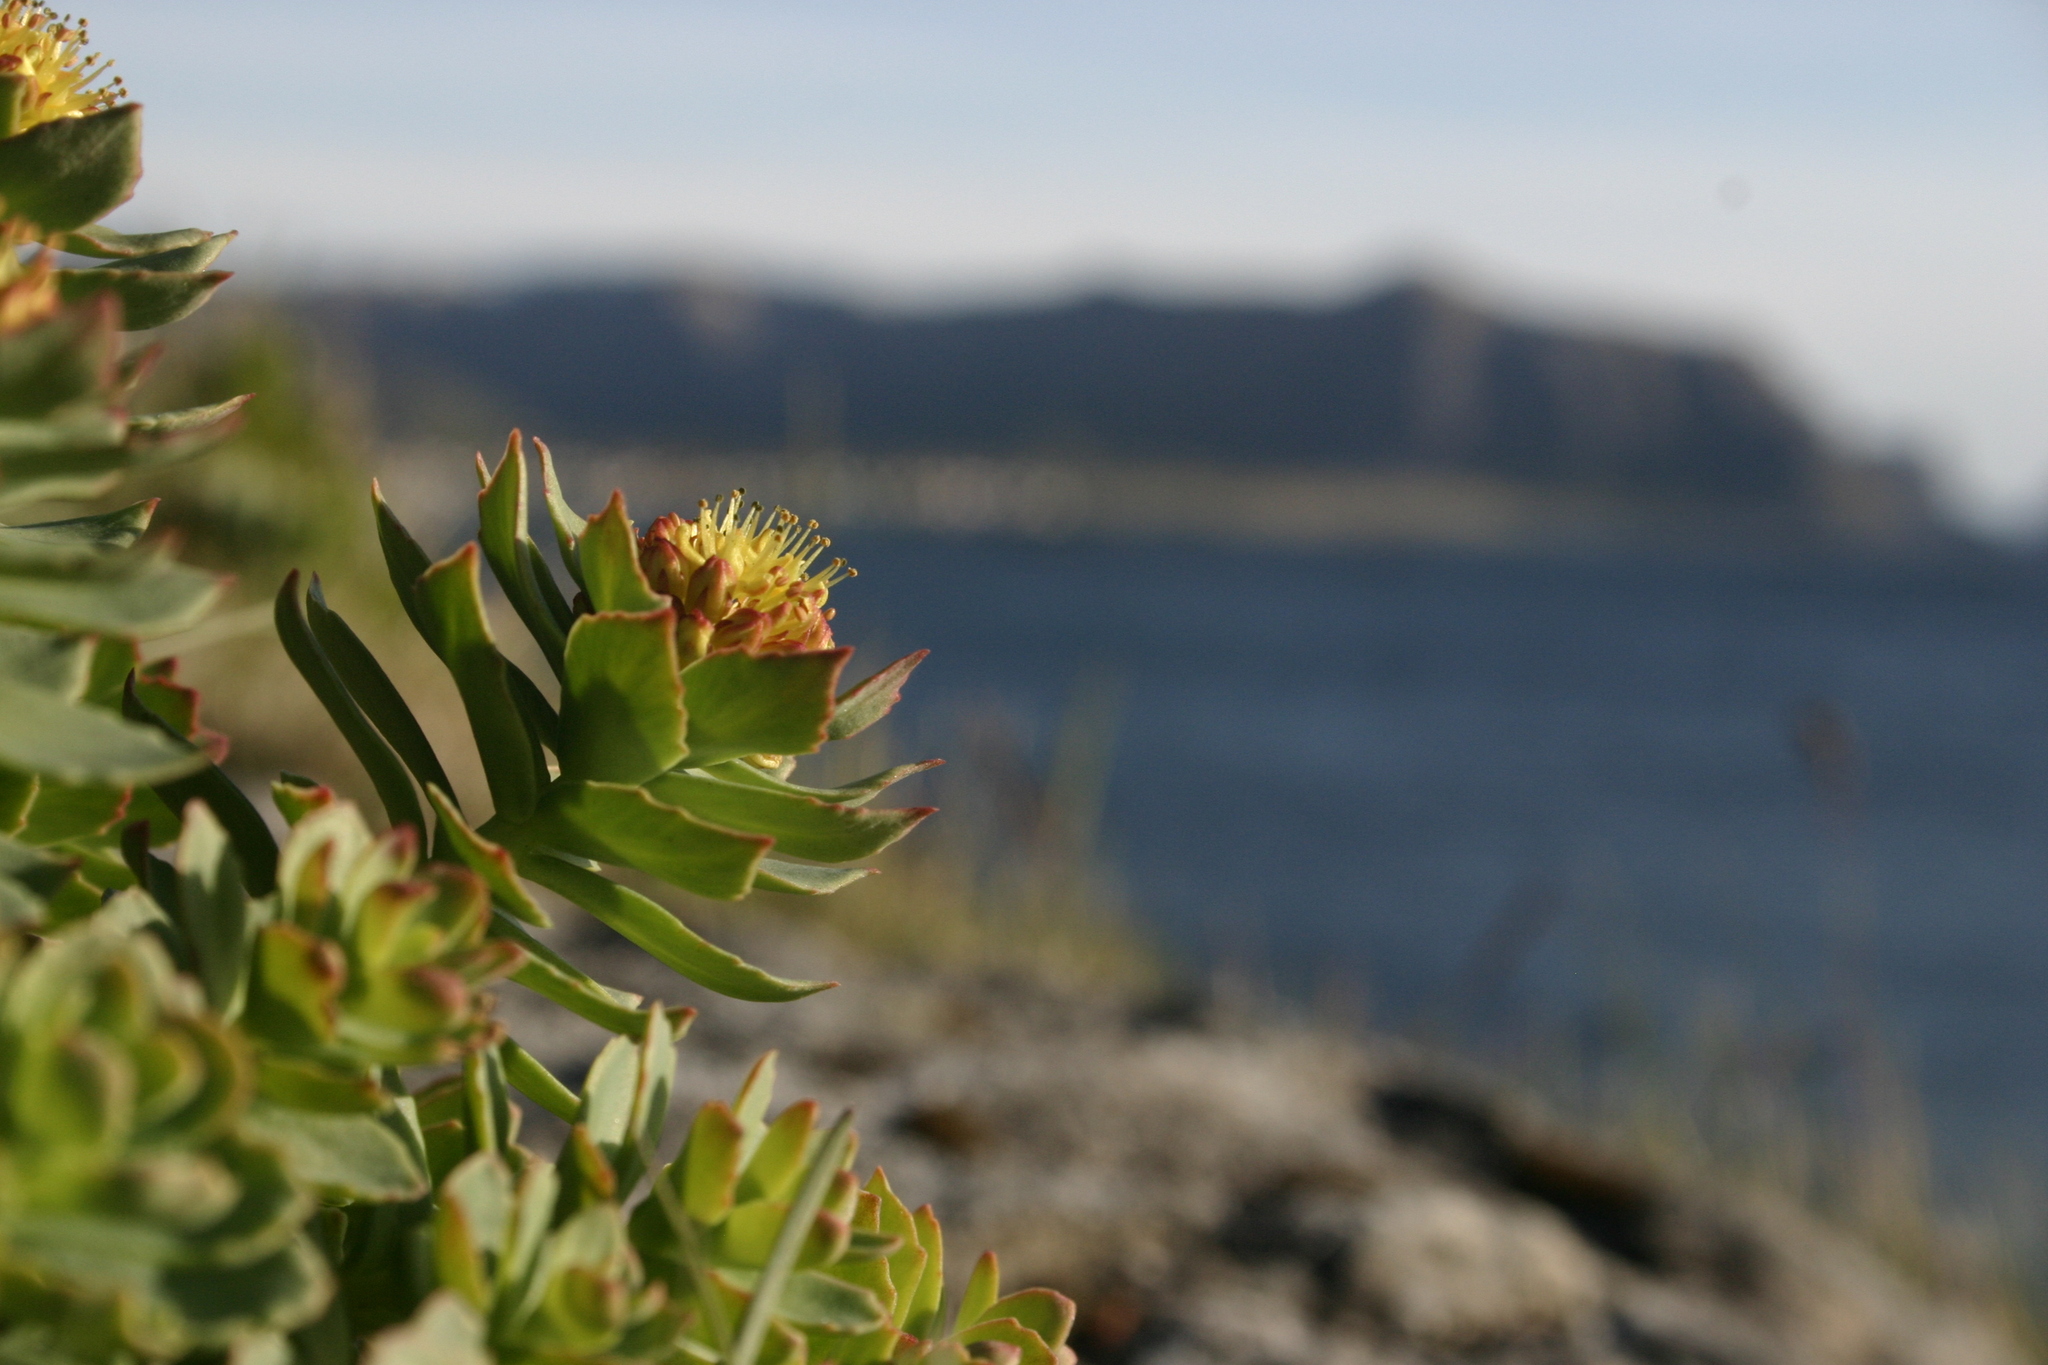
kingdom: Plantae
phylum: Tracheophyta
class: Magnoliopsida
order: Saxifragales
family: Crassulaceae
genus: Rhodiola
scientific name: Rhodiola rosea
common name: Roseroot
